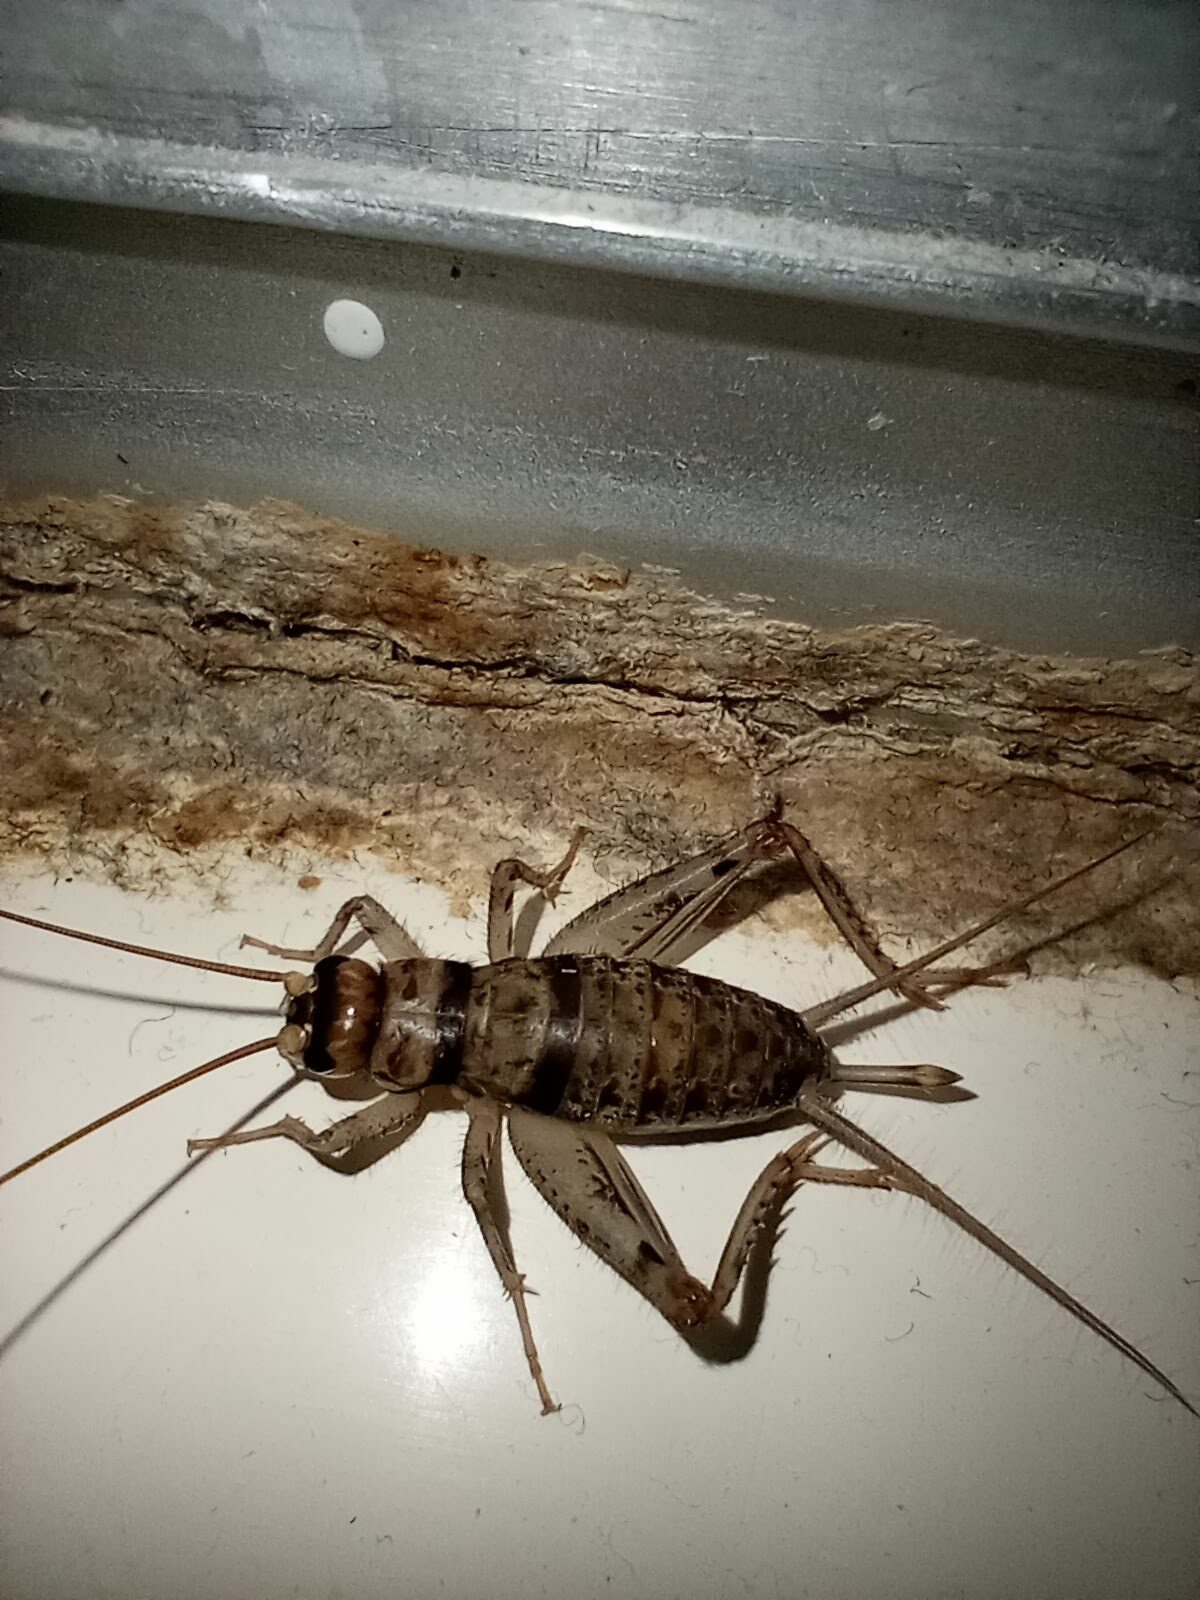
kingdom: Animalia
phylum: Arthropoda
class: Insecta
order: Orthoptera
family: Gryllidae
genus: Gryllodes
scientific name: Gryllodes sigillatus
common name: Tropical house cricket
